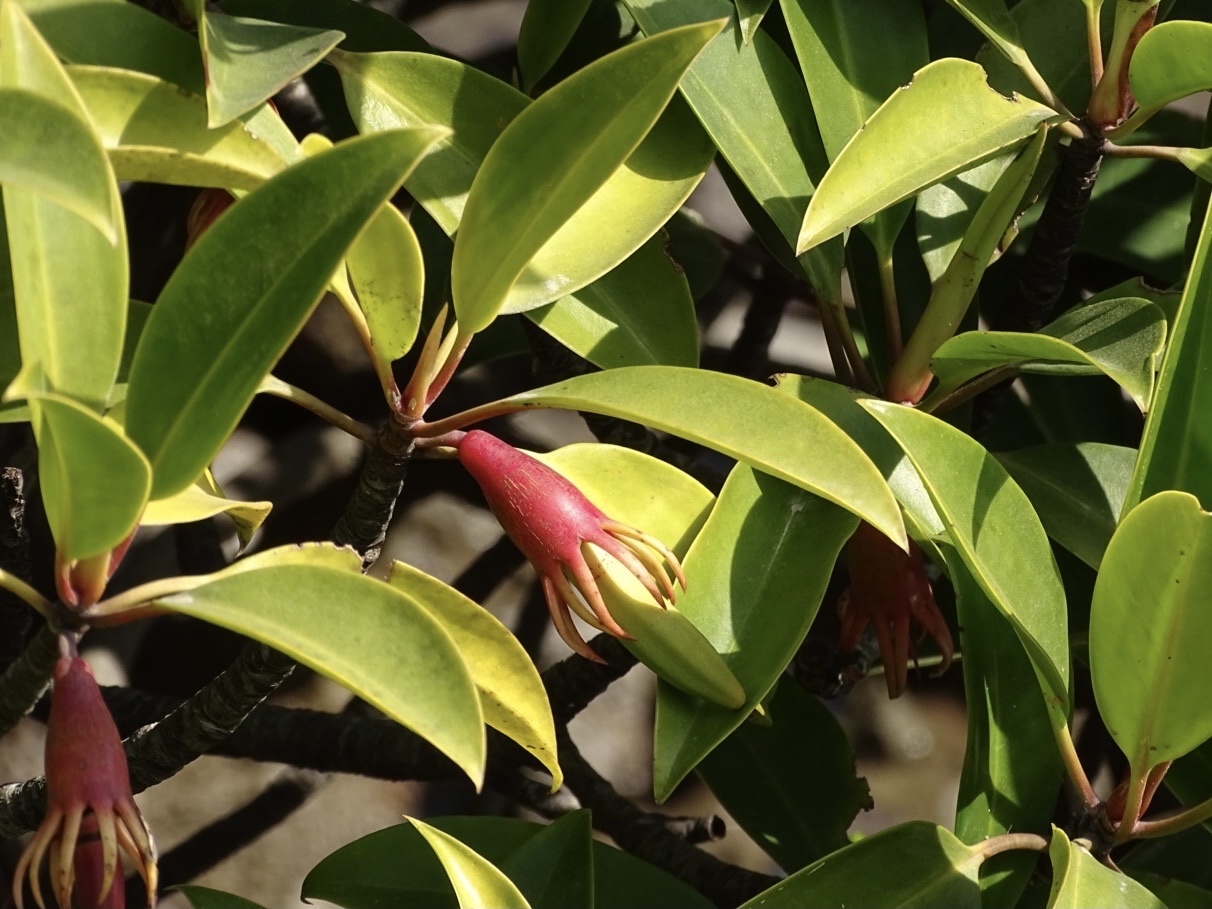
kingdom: Plantae
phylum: Tracheophyta
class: Magnoliopsida
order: Malpighiales
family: Rhizophoraceae
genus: Bruguiera
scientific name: Bruguiera gymnorhiza
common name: Oriental mangrove
